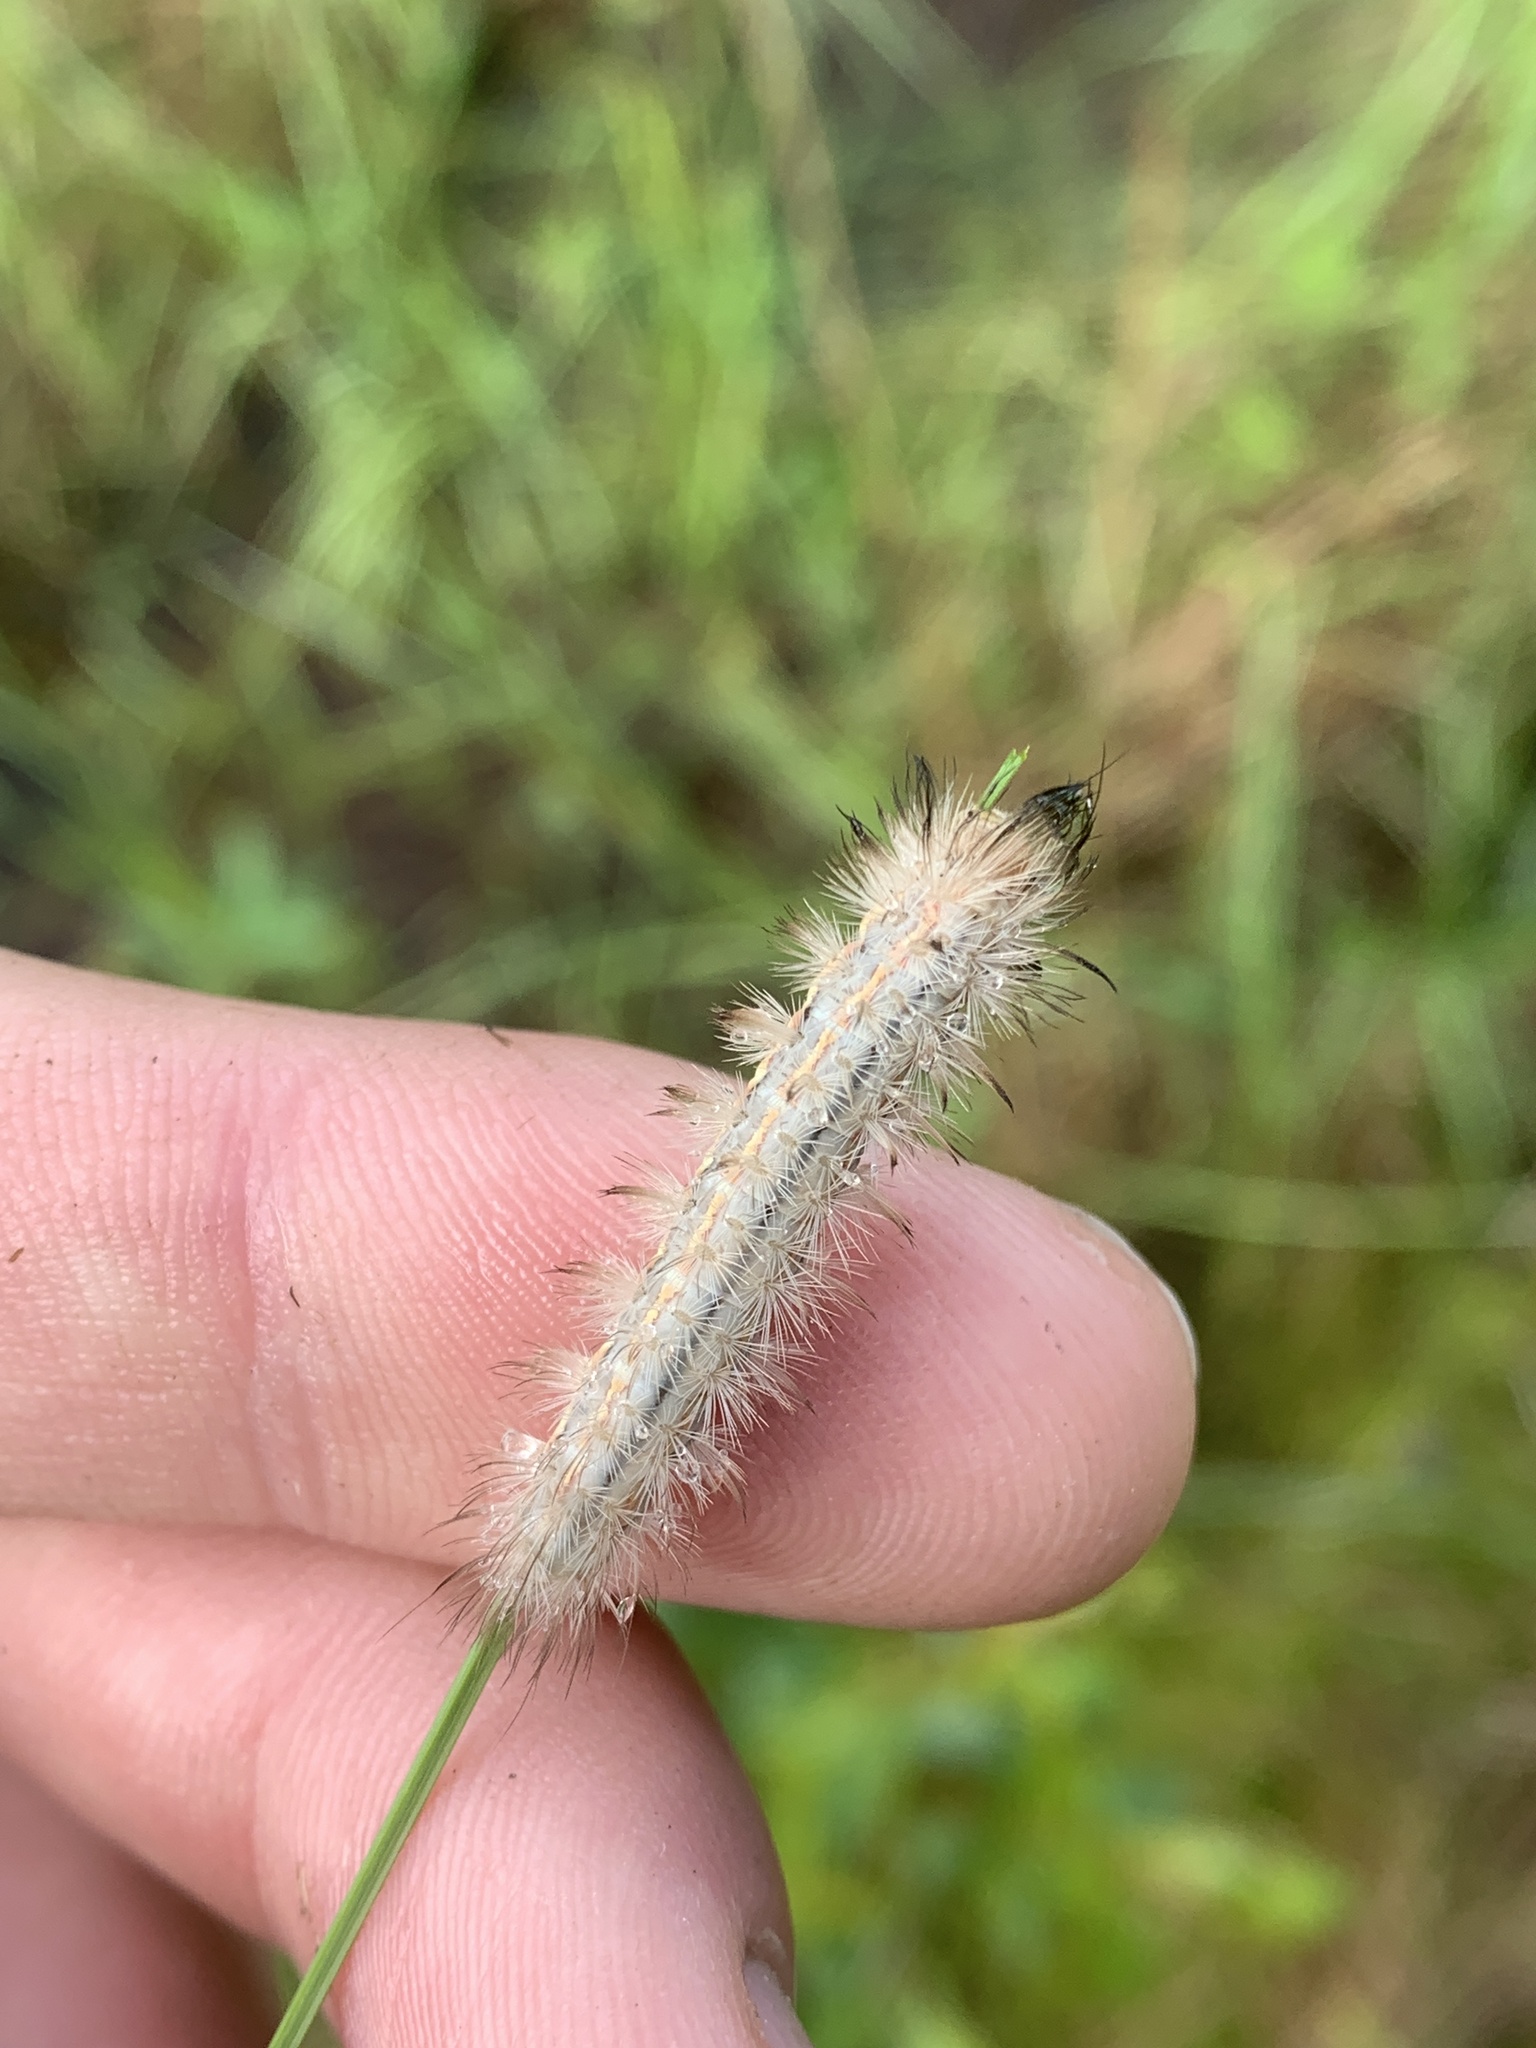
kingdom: Animalia
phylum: Arthropoda
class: Insecta
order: Lepidoptera
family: Erebidae
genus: Cisseps
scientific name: Cisseps fulvicollis
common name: Yellow-collared scape moth
